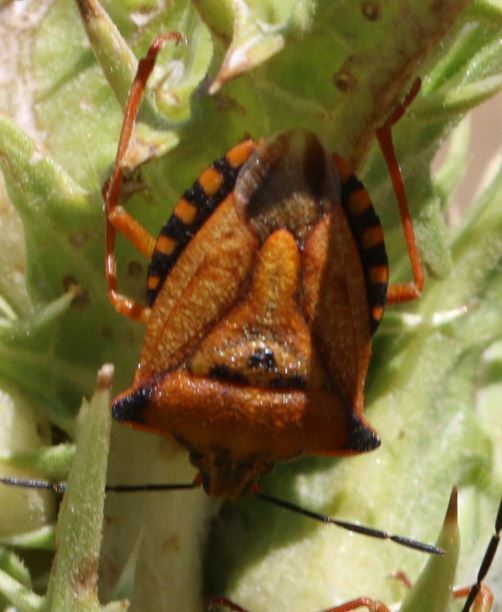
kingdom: Animalia
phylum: Arthropoda
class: Insecta
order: Hemiptera
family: Pentatomidae
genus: Carpocoris
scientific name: Carpocoris mediterraneus
